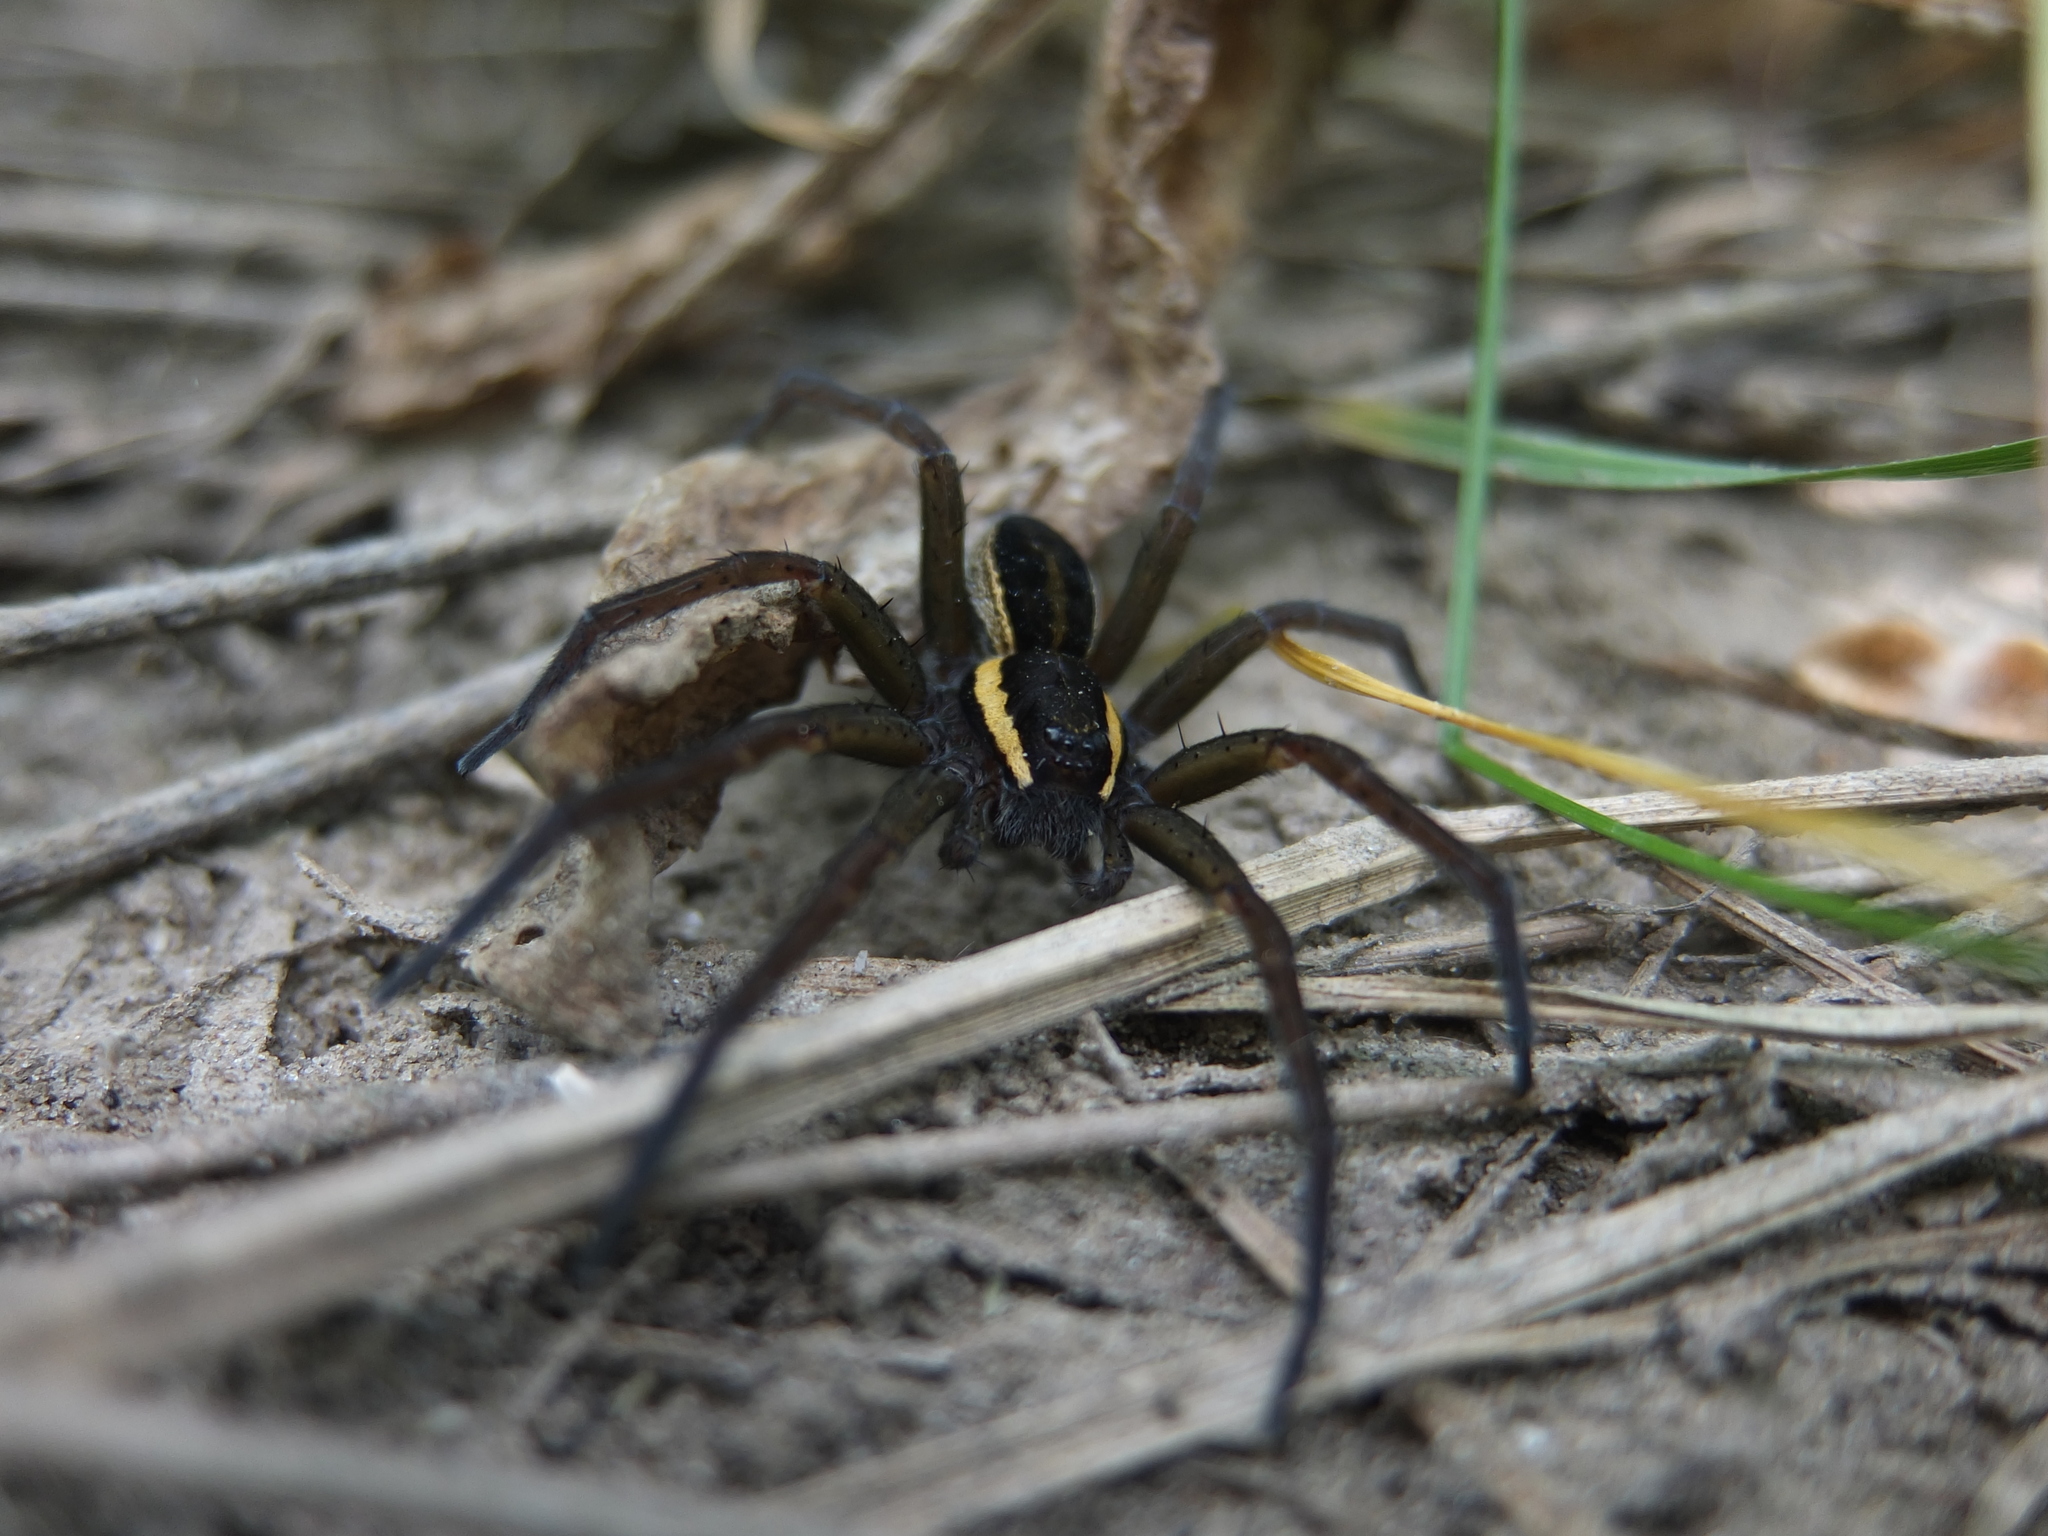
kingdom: Animalia
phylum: Arthropoda
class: Arachnida
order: Araneae
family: Pisauridae
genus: Dolomedes
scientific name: Dolomedes fimbriatus
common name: Raft spider
